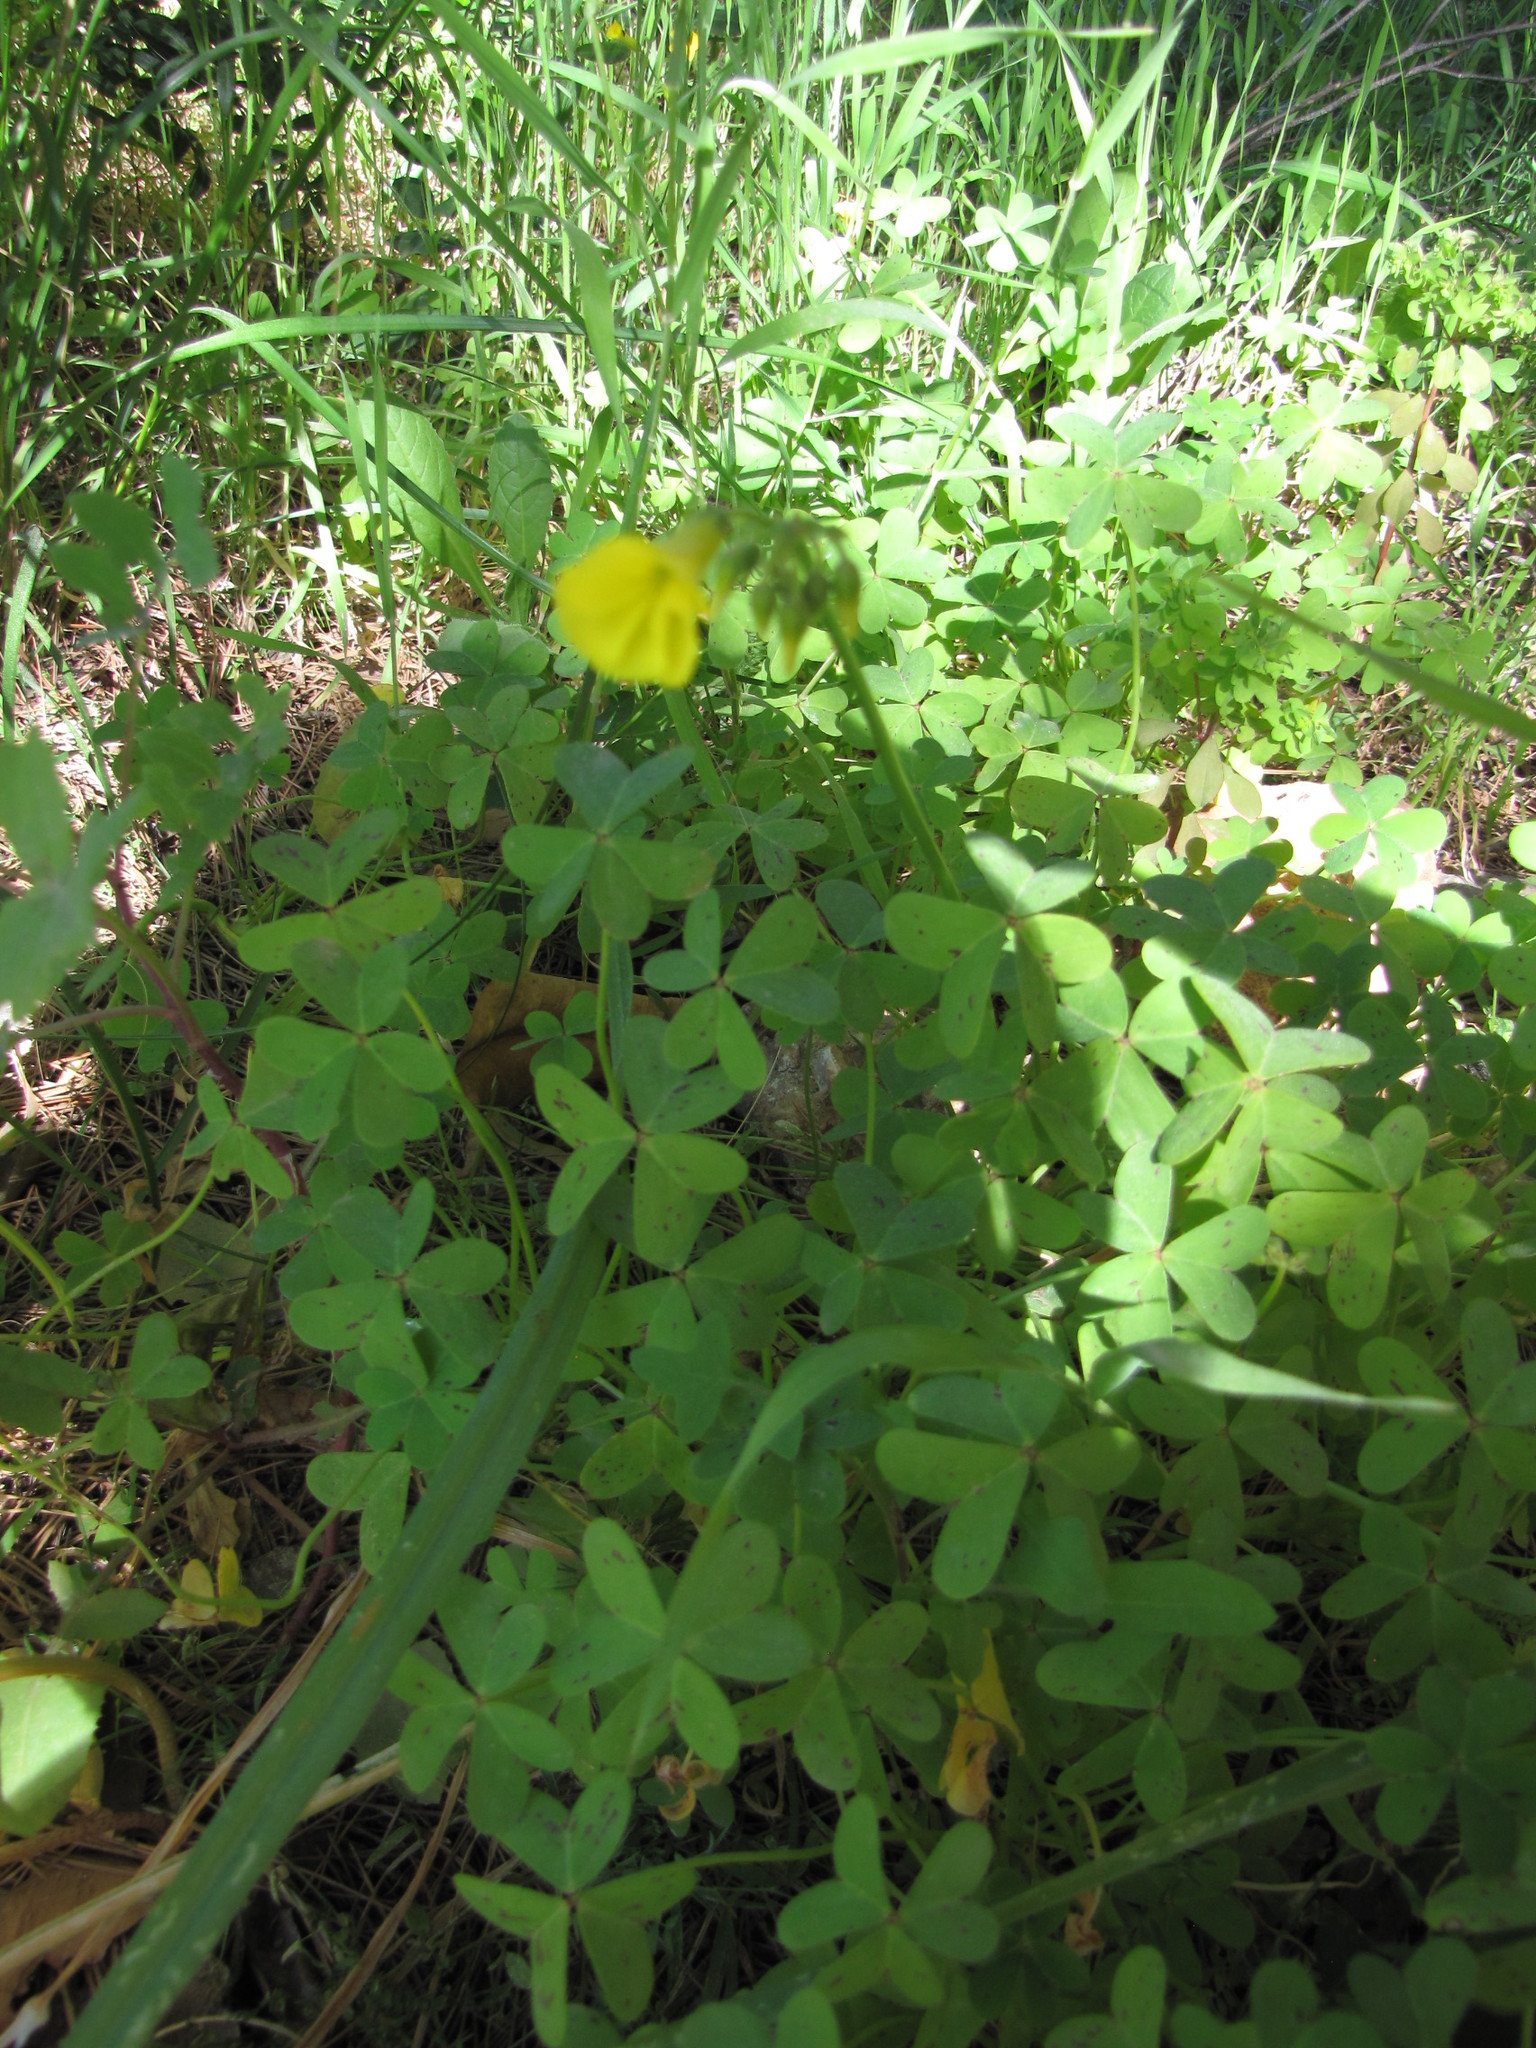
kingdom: Plantae
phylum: Tracheophyta
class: Magnoliopsida
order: Oxalidales
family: Oxalidaceae
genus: Oxalis
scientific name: Oxalis pes-caprae
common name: Bermuda-buttercup
